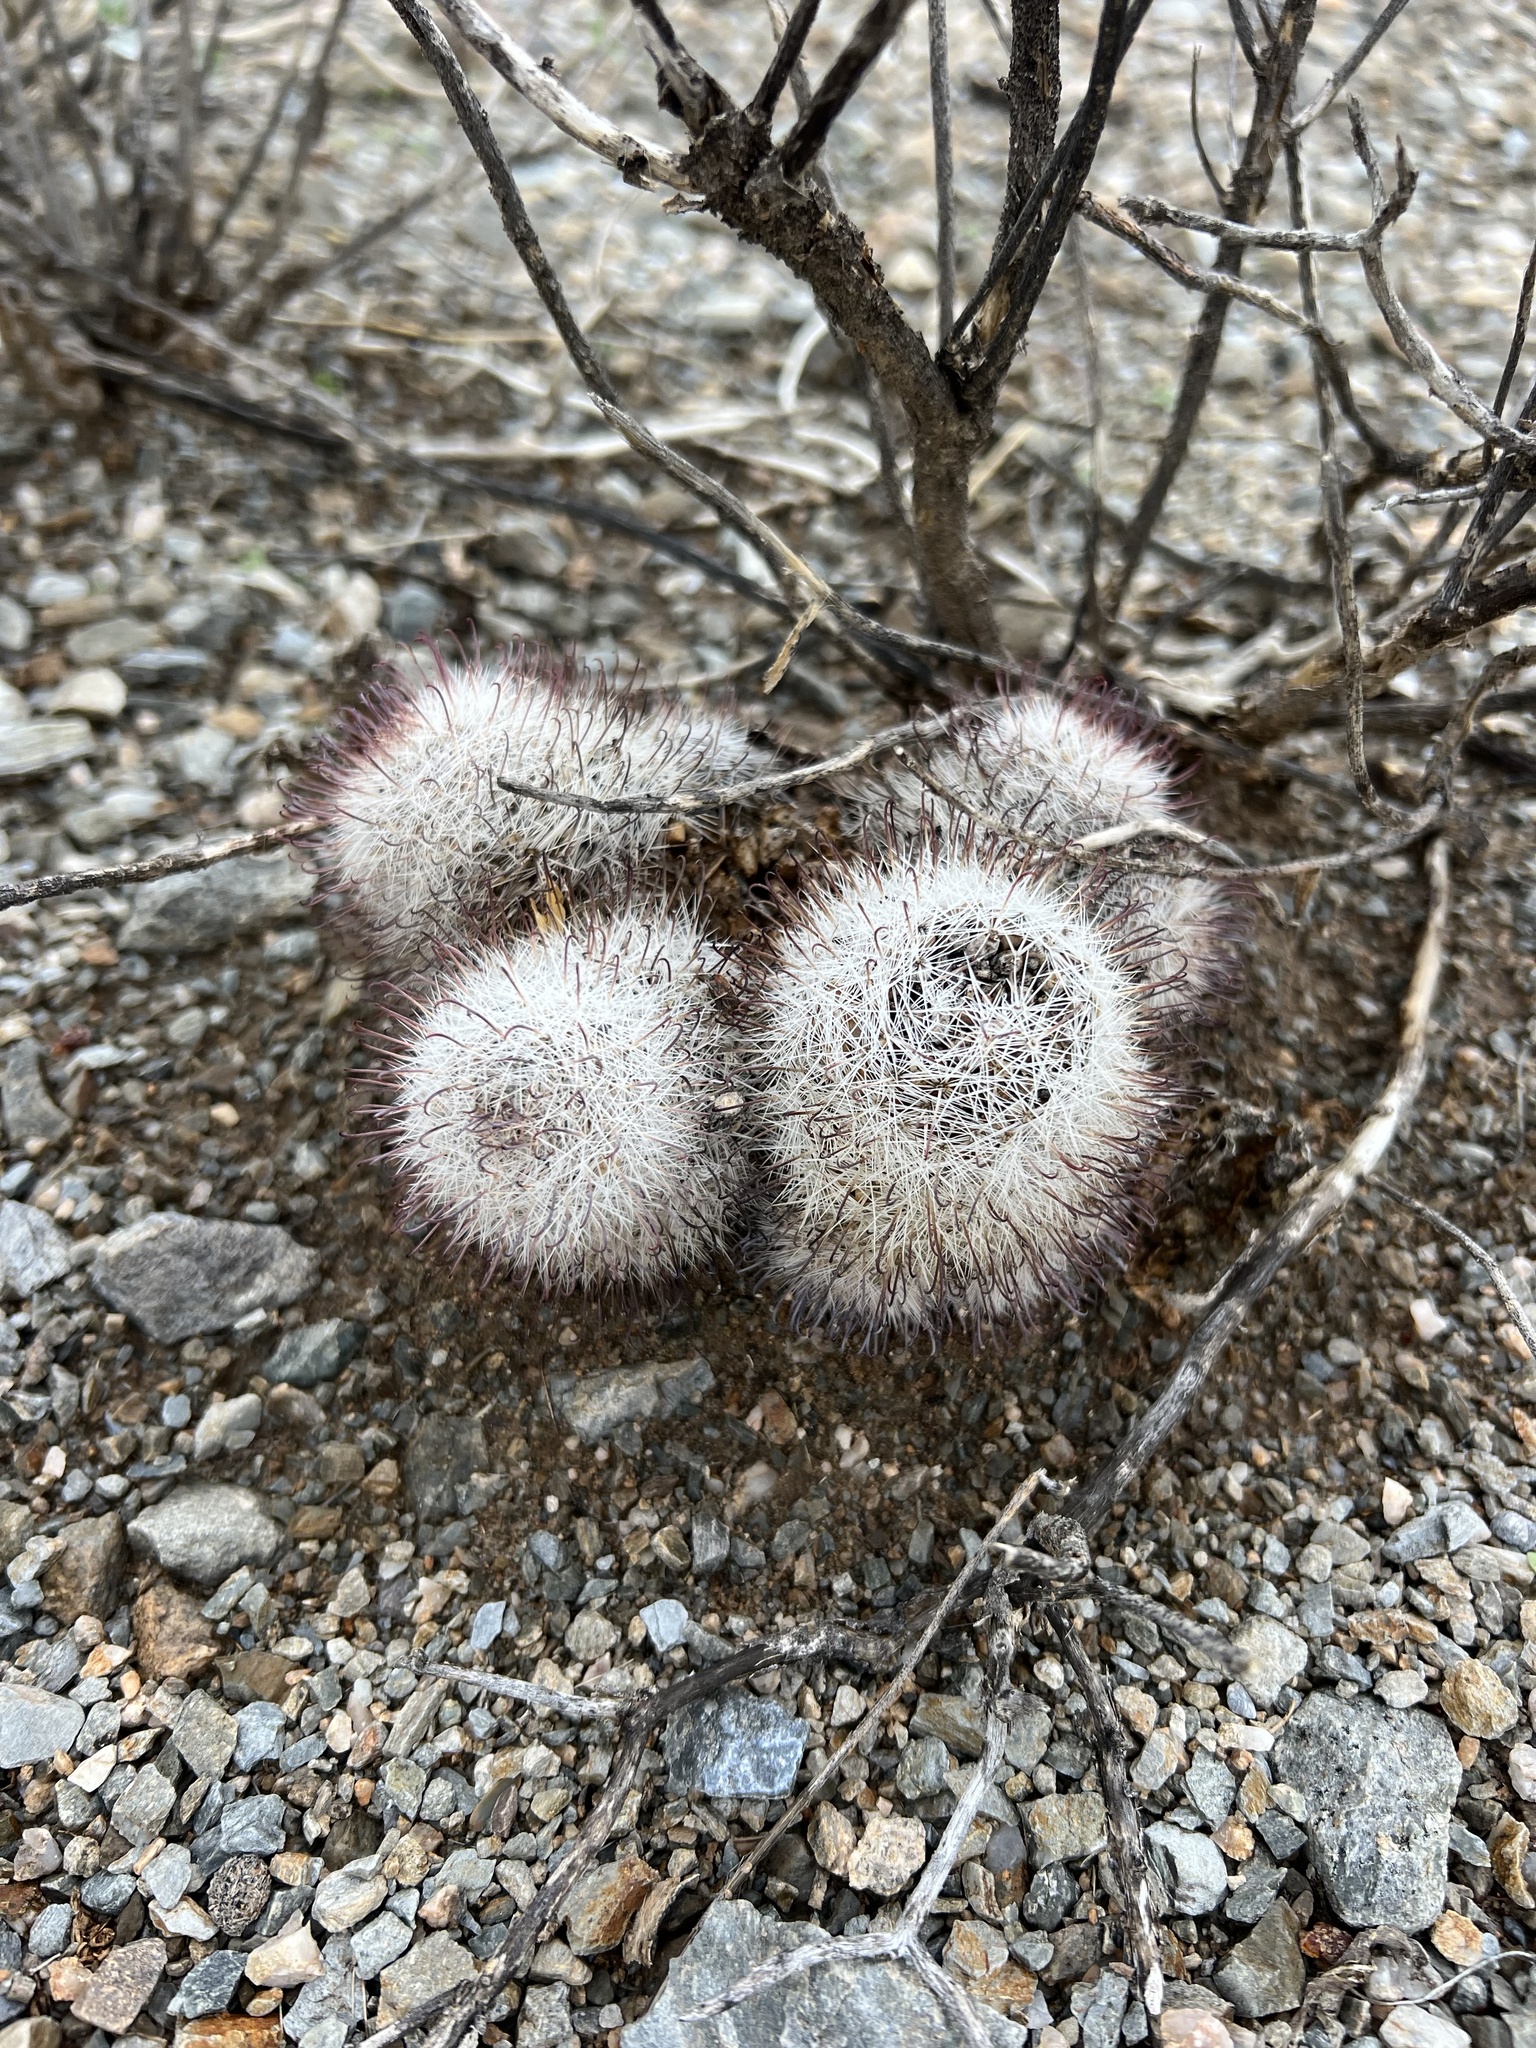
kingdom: Plantae
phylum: Tracheophyta
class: Magnoliopsida
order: Caryophyllales
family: Cactaceae
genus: Cochemiea
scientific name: Cochemiea grahamii
